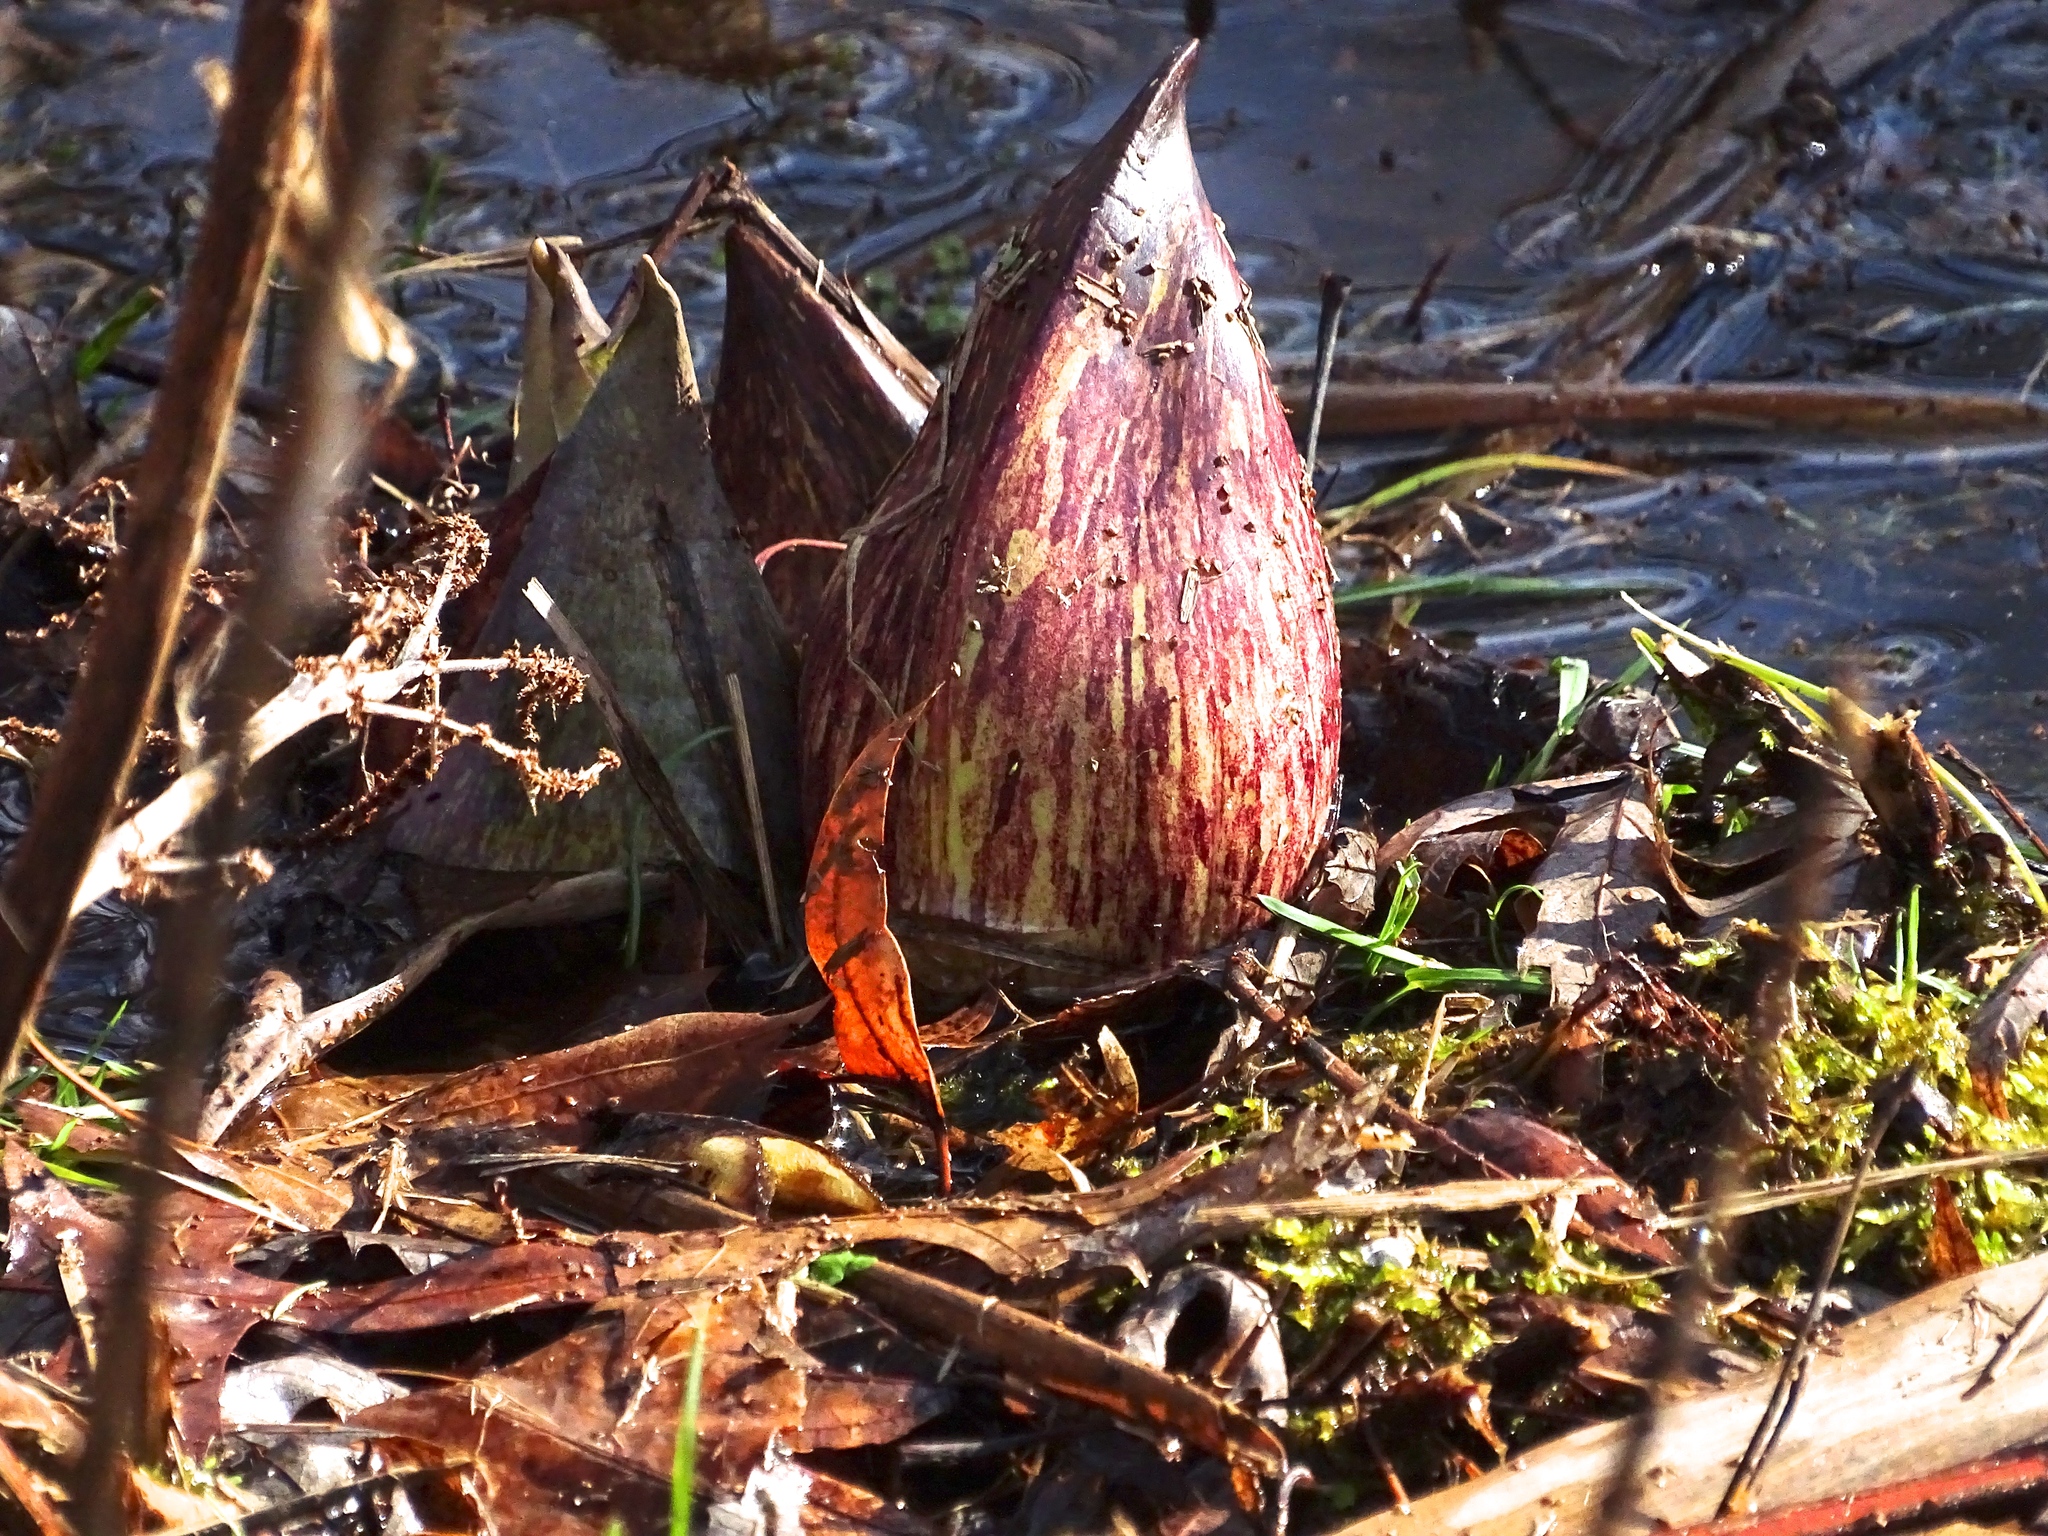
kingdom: Plantae
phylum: Tracheophyta
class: Liliopsida
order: Alismatales
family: Araceae
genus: Symplocarpus
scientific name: Symplocarpus foetidus
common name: Eastern skunk cabbage
